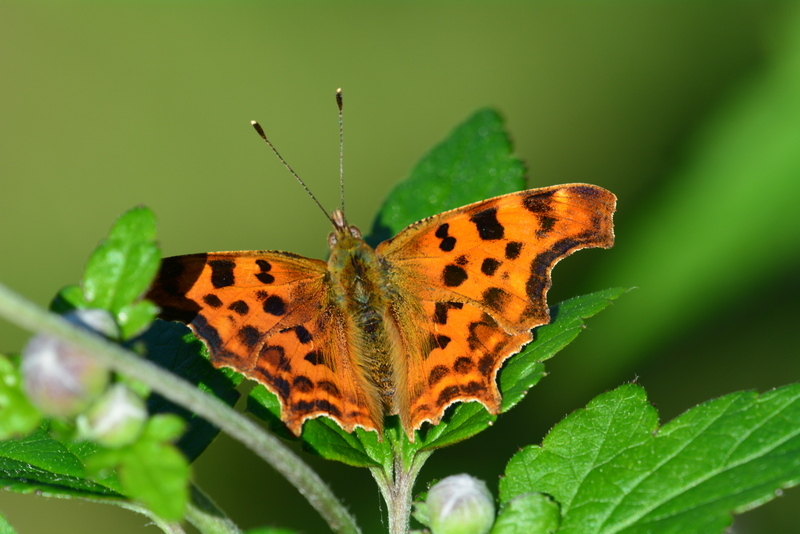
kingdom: Animalia
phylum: Arthropoda
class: Insecta
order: Lepidoptera
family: Nymphalidae
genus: Polygonia
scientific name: Polygonia c-album
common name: Comma
